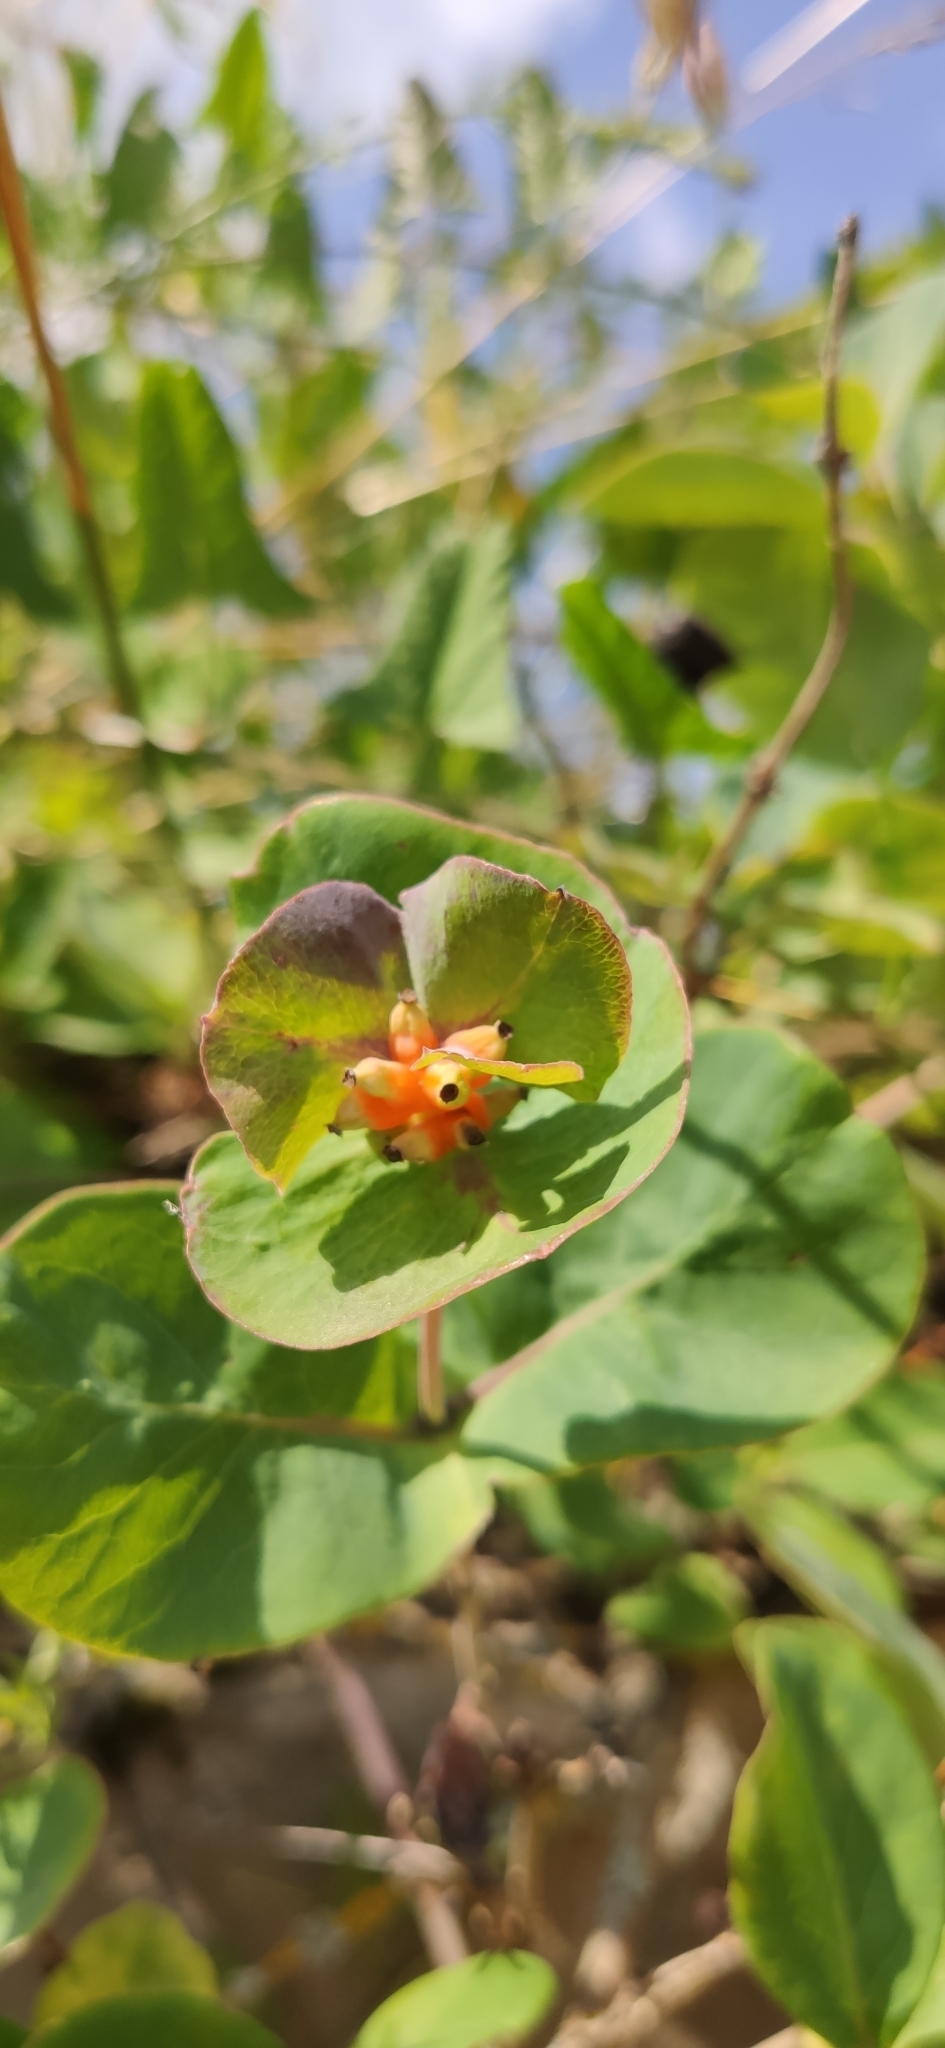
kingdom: Plantae
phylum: Tracheophyta
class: Magnoliopsida
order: Dipsacales
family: Caprifoliaceae
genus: Lonicera
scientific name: Lonicera caprifolium
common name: Perfoliate honeysuckle
